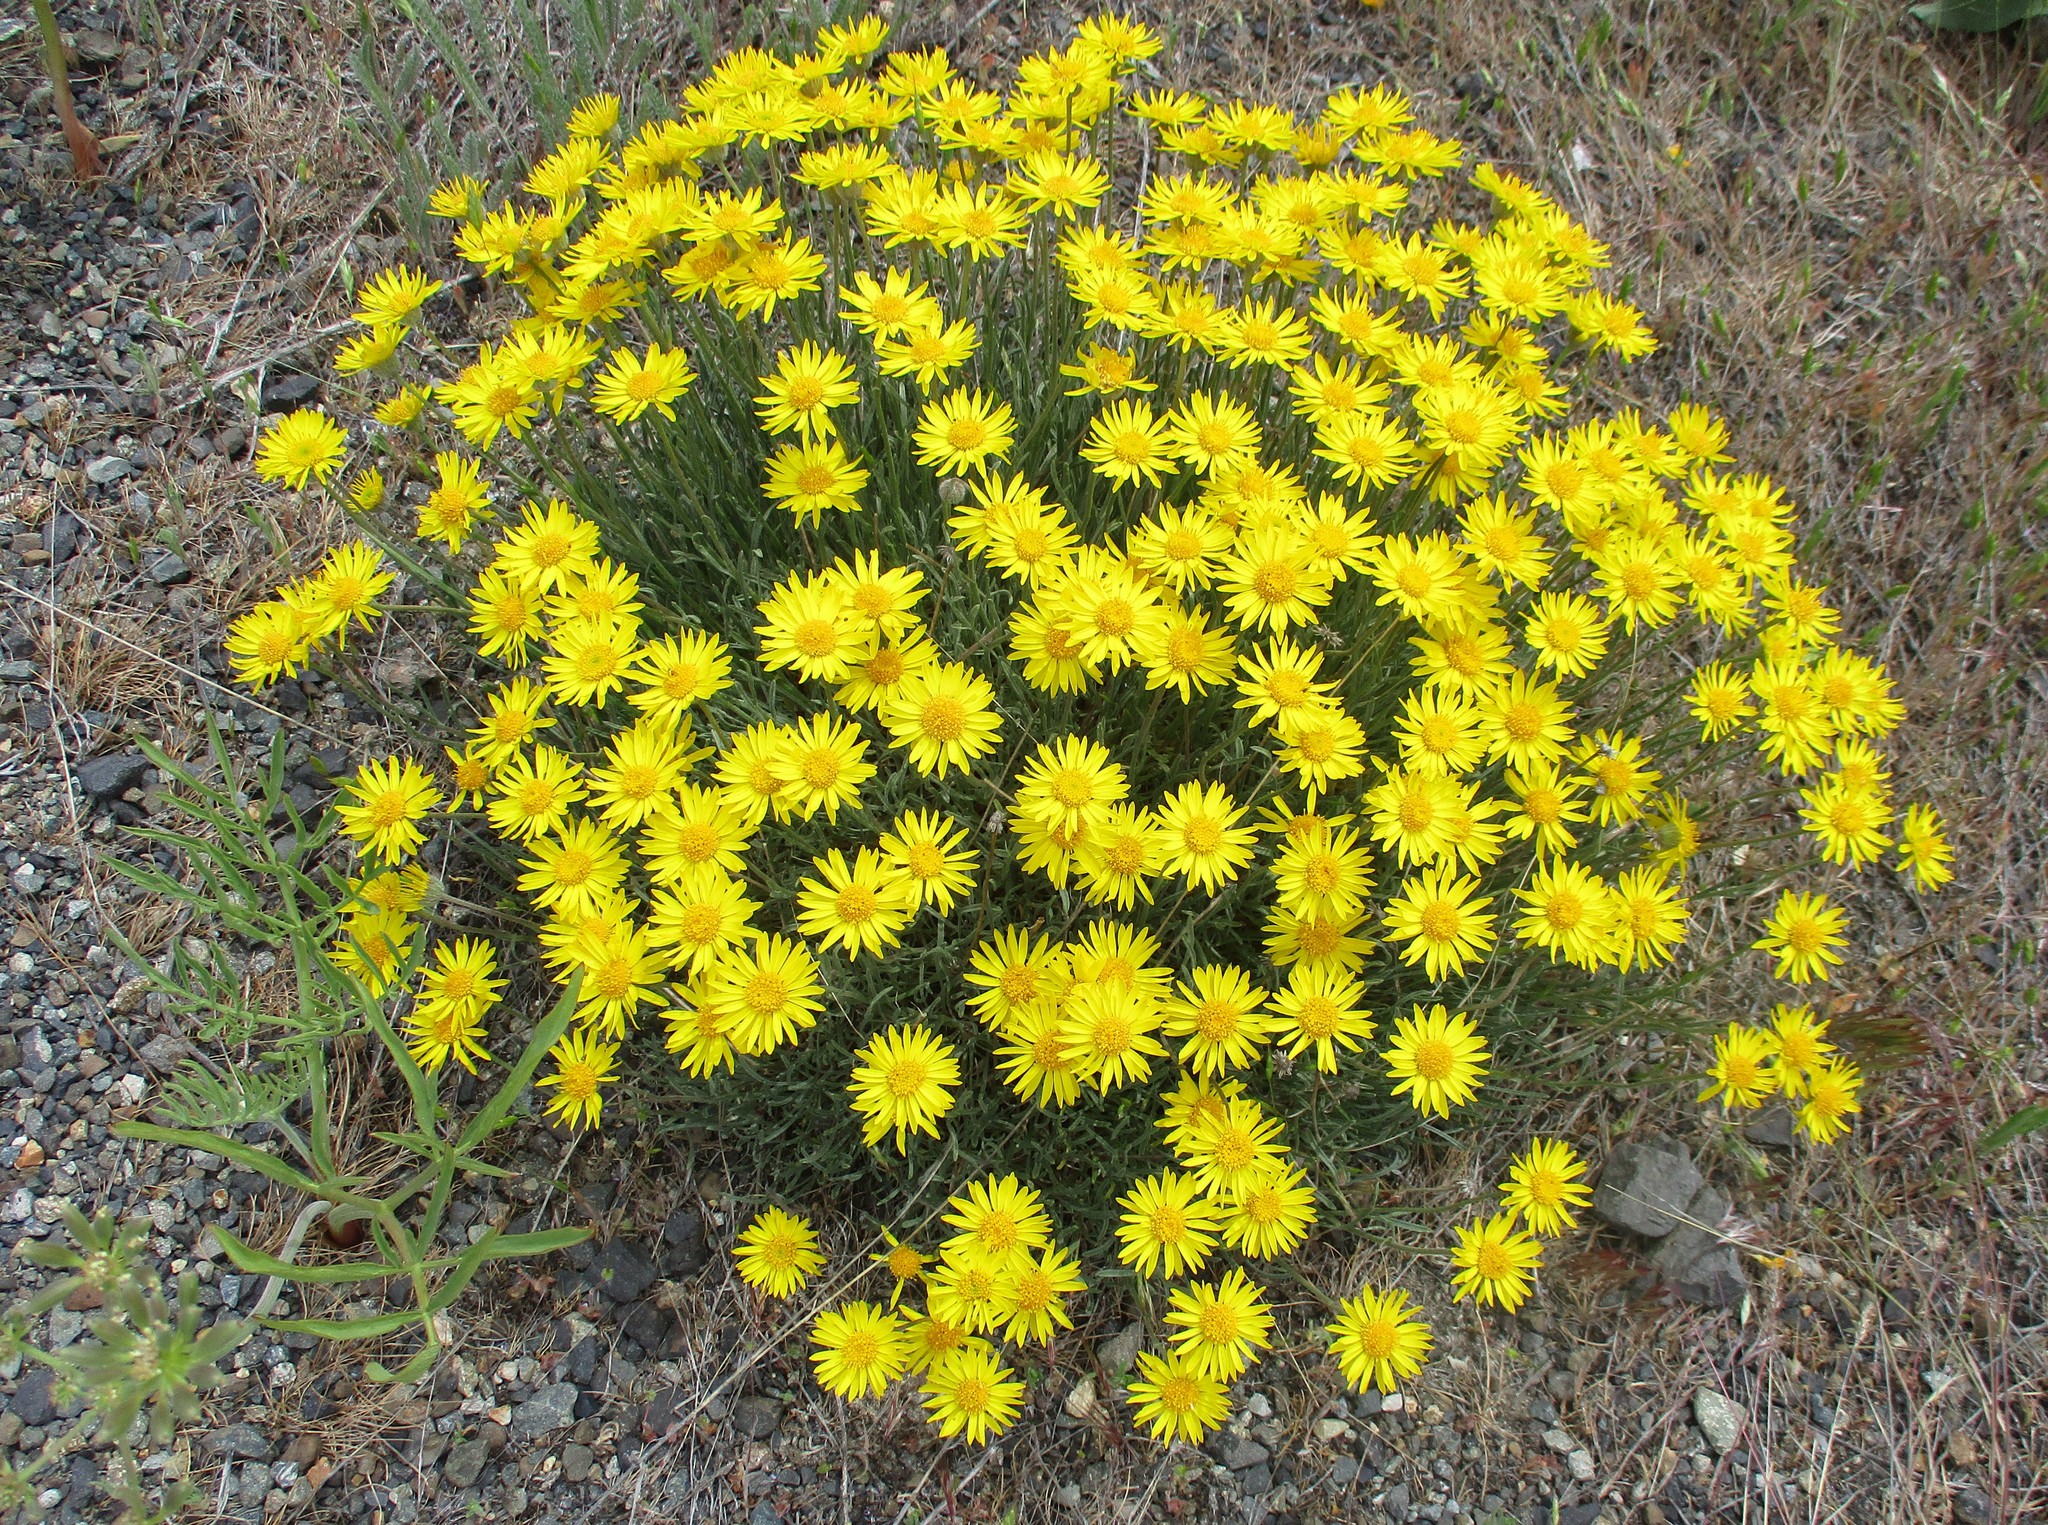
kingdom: Plantae
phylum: Tracheophyta
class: Magnoliopsida
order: Asterales
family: Asteraceae
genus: Erigeron
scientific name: Erigeron linearis
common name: Desert yellow fleabane
